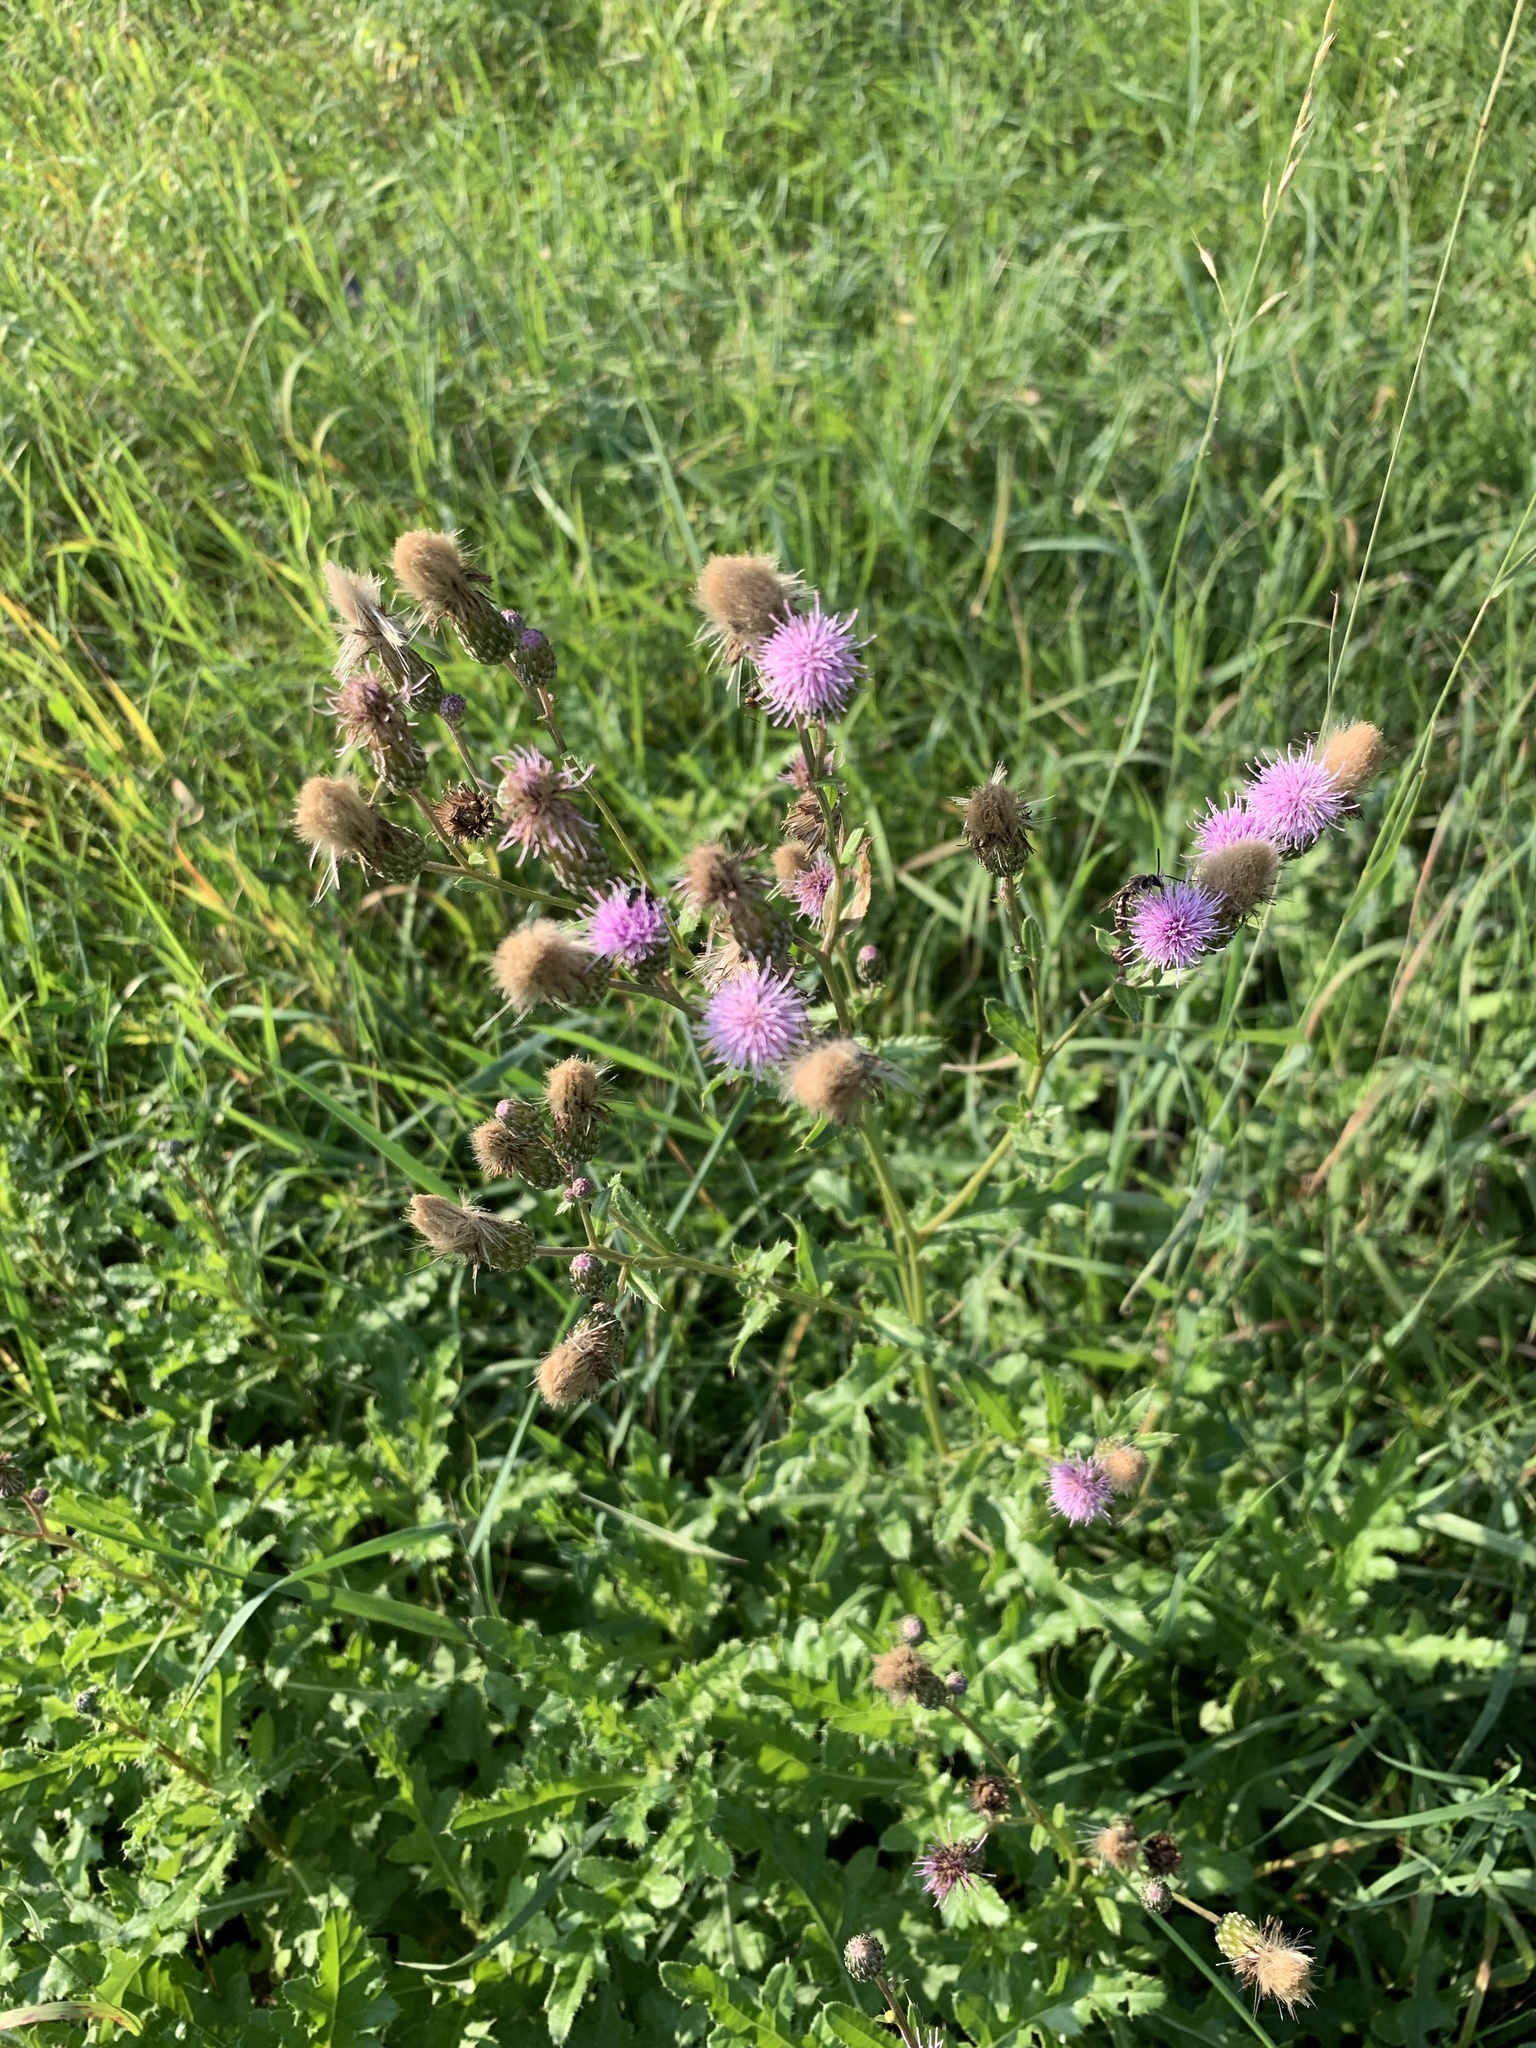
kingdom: Plantae
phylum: Tracheophyta
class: Magnoliopsida
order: Asterales
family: Asteraceae
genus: Cirsium
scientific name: Cirsium arvense
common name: Creeping thistle
